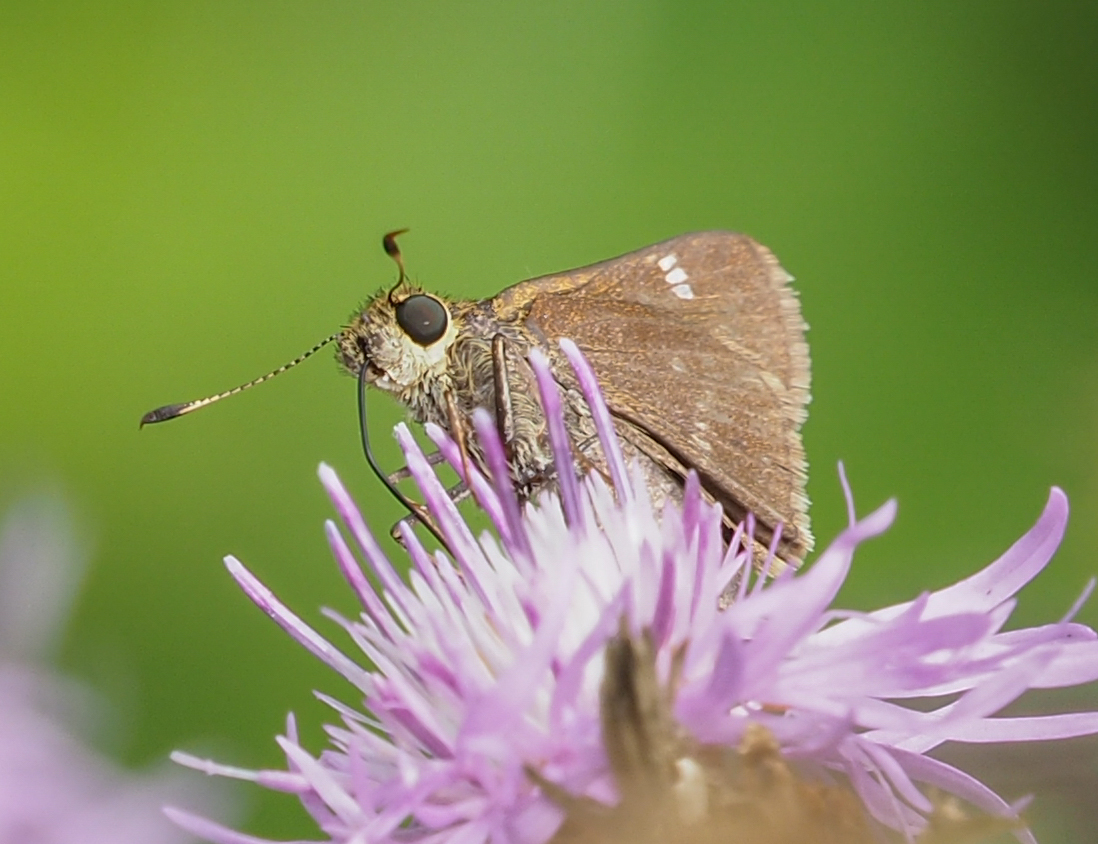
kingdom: Animalia
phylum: Arthropoda
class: Insecta
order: Lepidoptera
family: Hesperiidae
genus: Vernia
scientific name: Vernia verna
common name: Little glassywing
